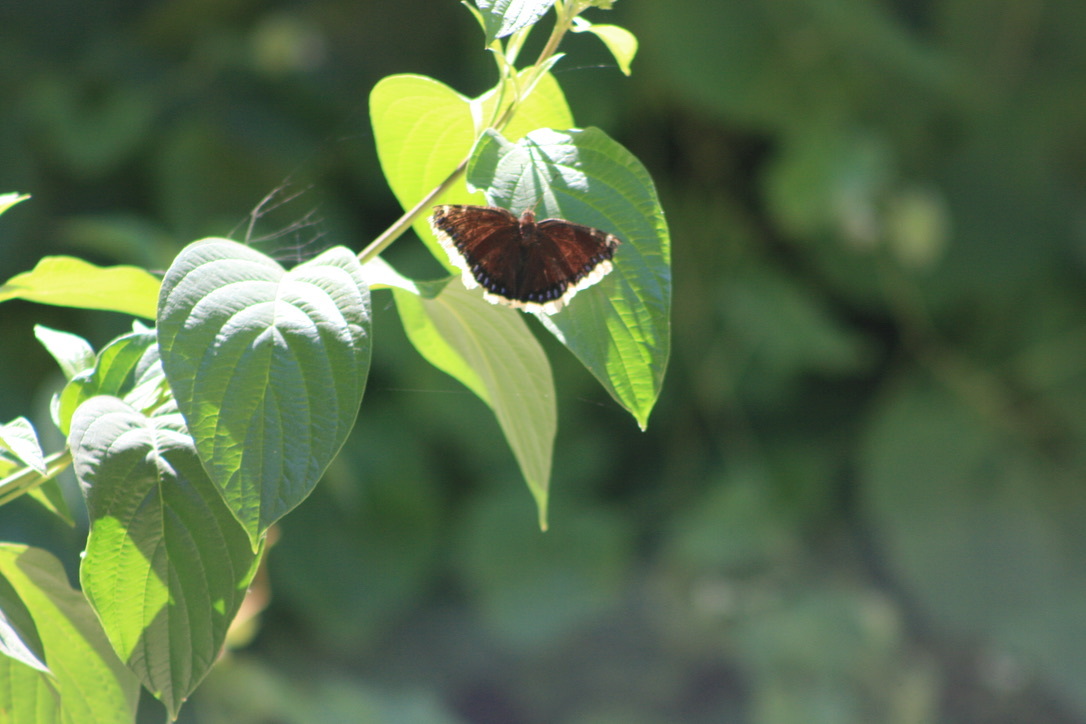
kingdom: Animalia
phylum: Arthropoda
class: Insecta
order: Lepidoptera
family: Nymphalidae
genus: Nymphalis
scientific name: Nymphalis antiopa
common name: Camberwell beauty
